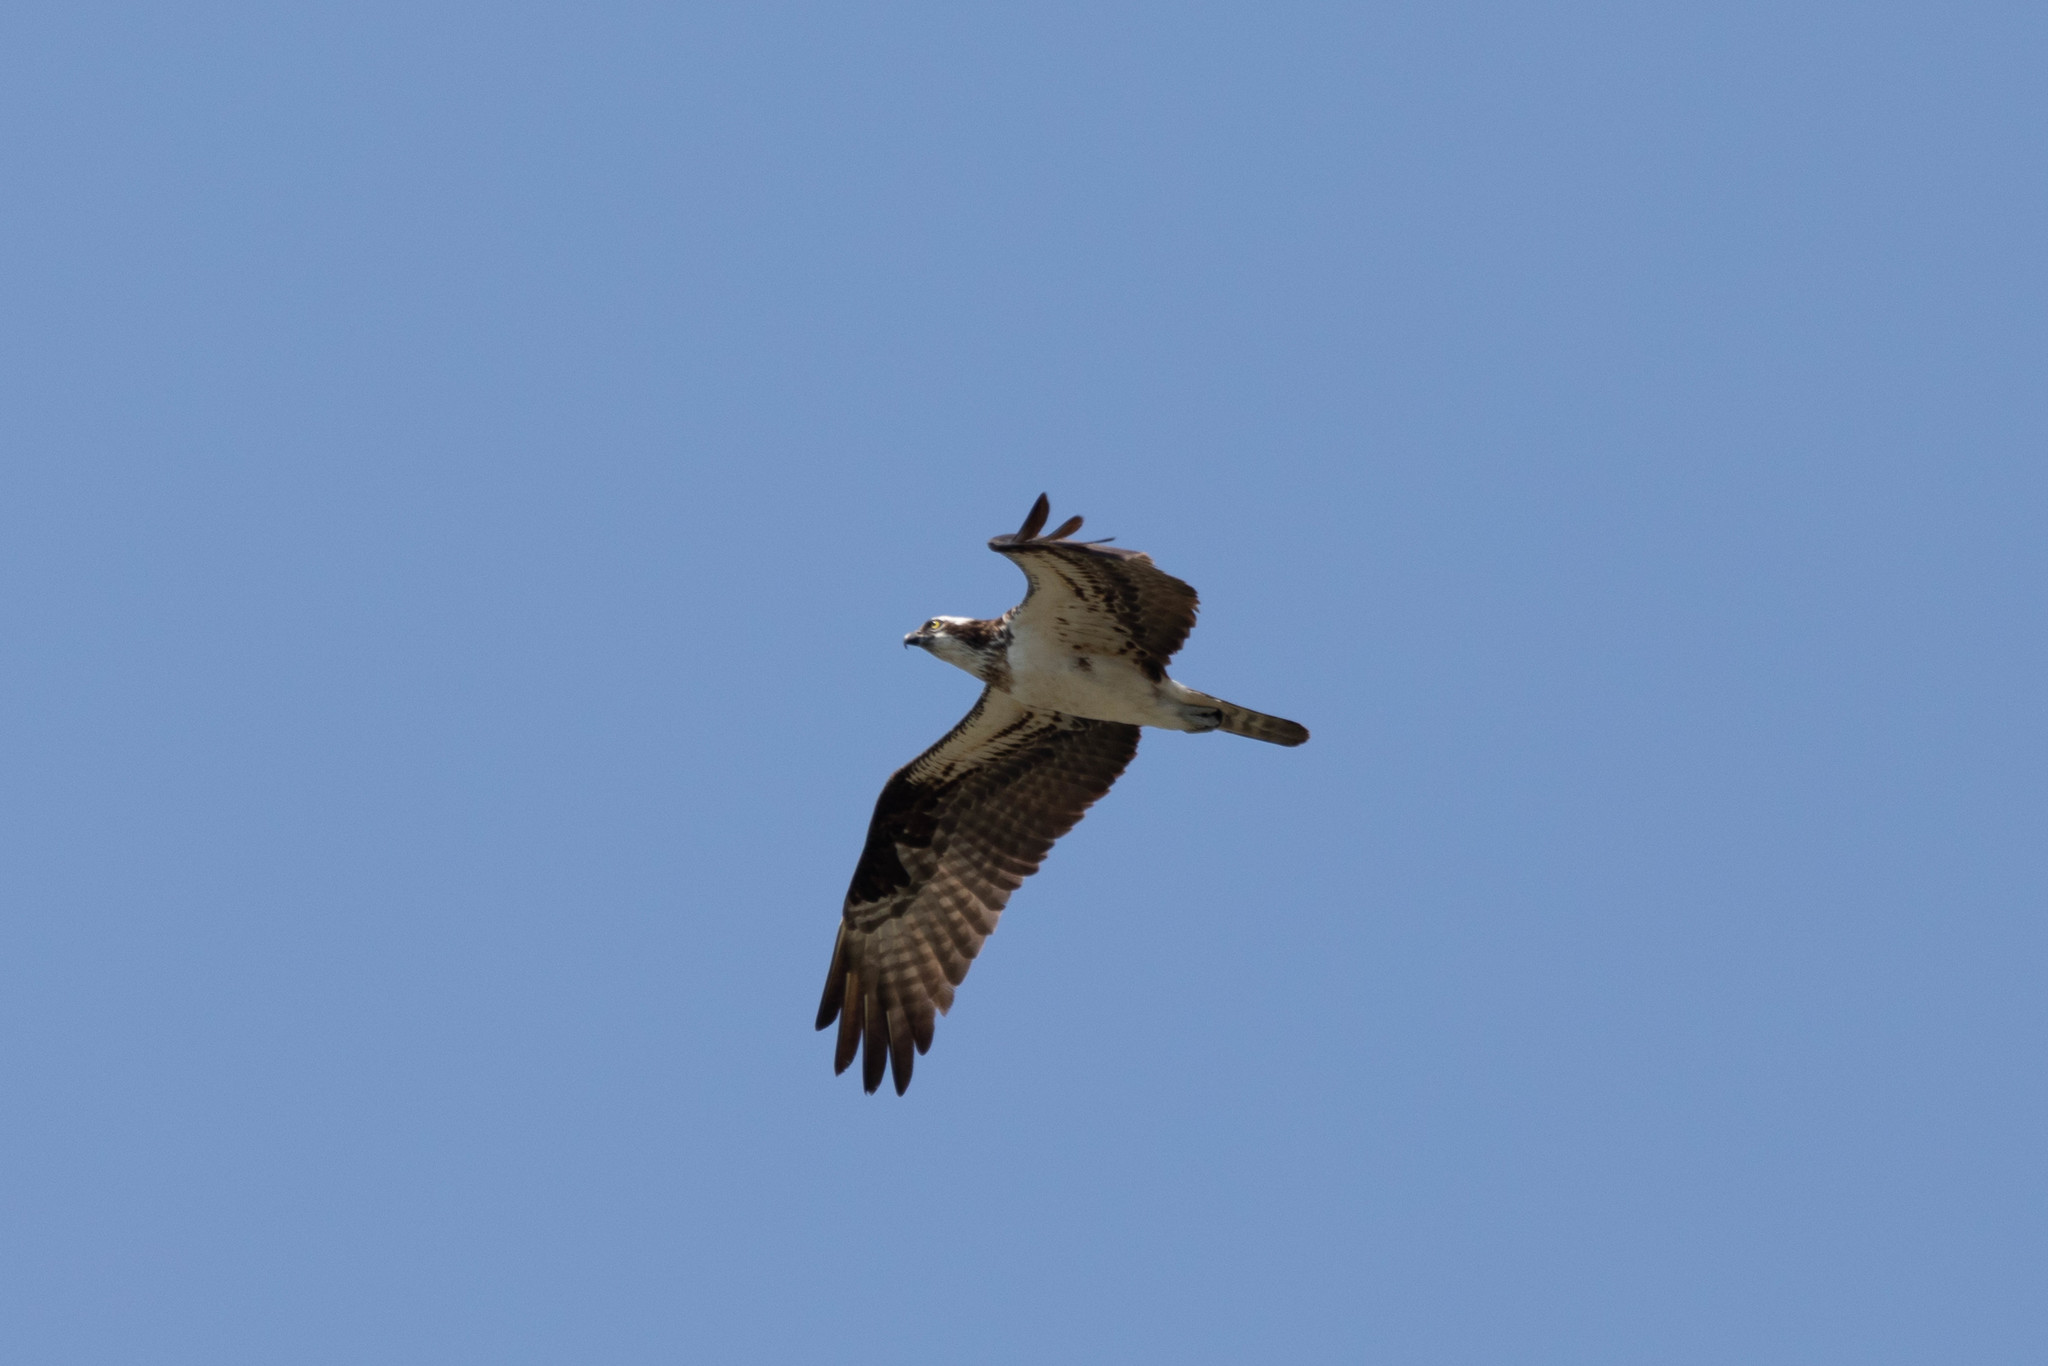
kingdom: Animalia
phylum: Chordata
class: Aves
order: Accipitriformes
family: Pandionidae
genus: Pandion
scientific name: Pandion haliaetus
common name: Osprey
